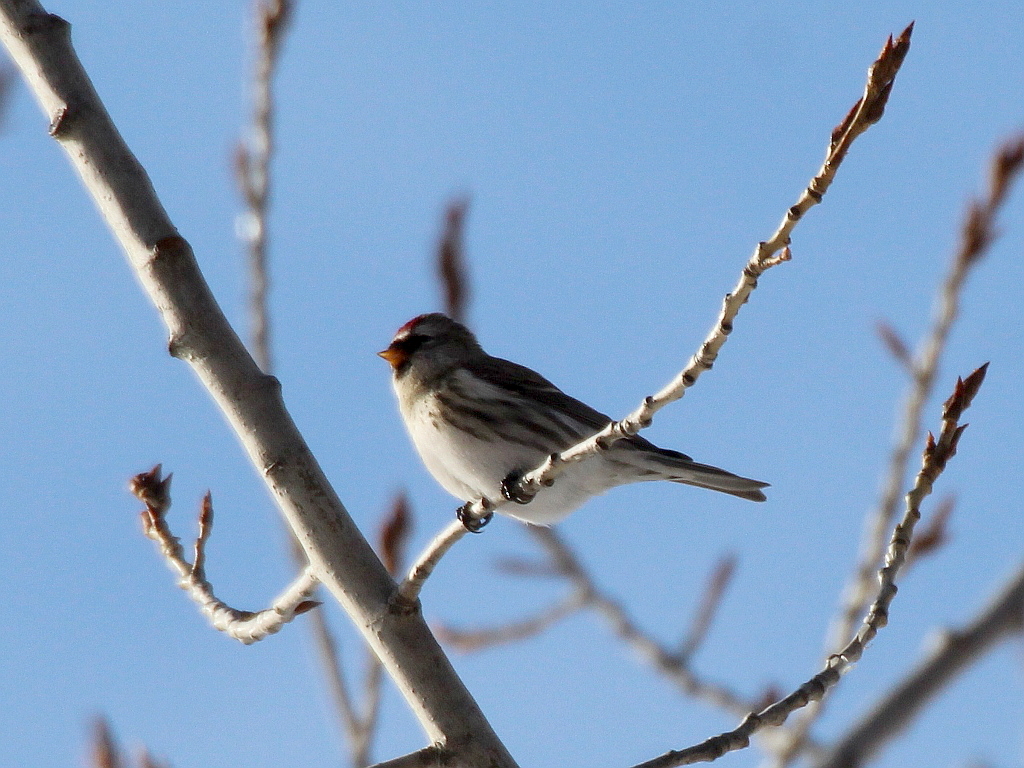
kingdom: Animalia
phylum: Chordata
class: Aves
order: Passeriformes
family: Fringillidae
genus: Acanthis
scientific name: Acanthis flammea
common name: Common redpoll
